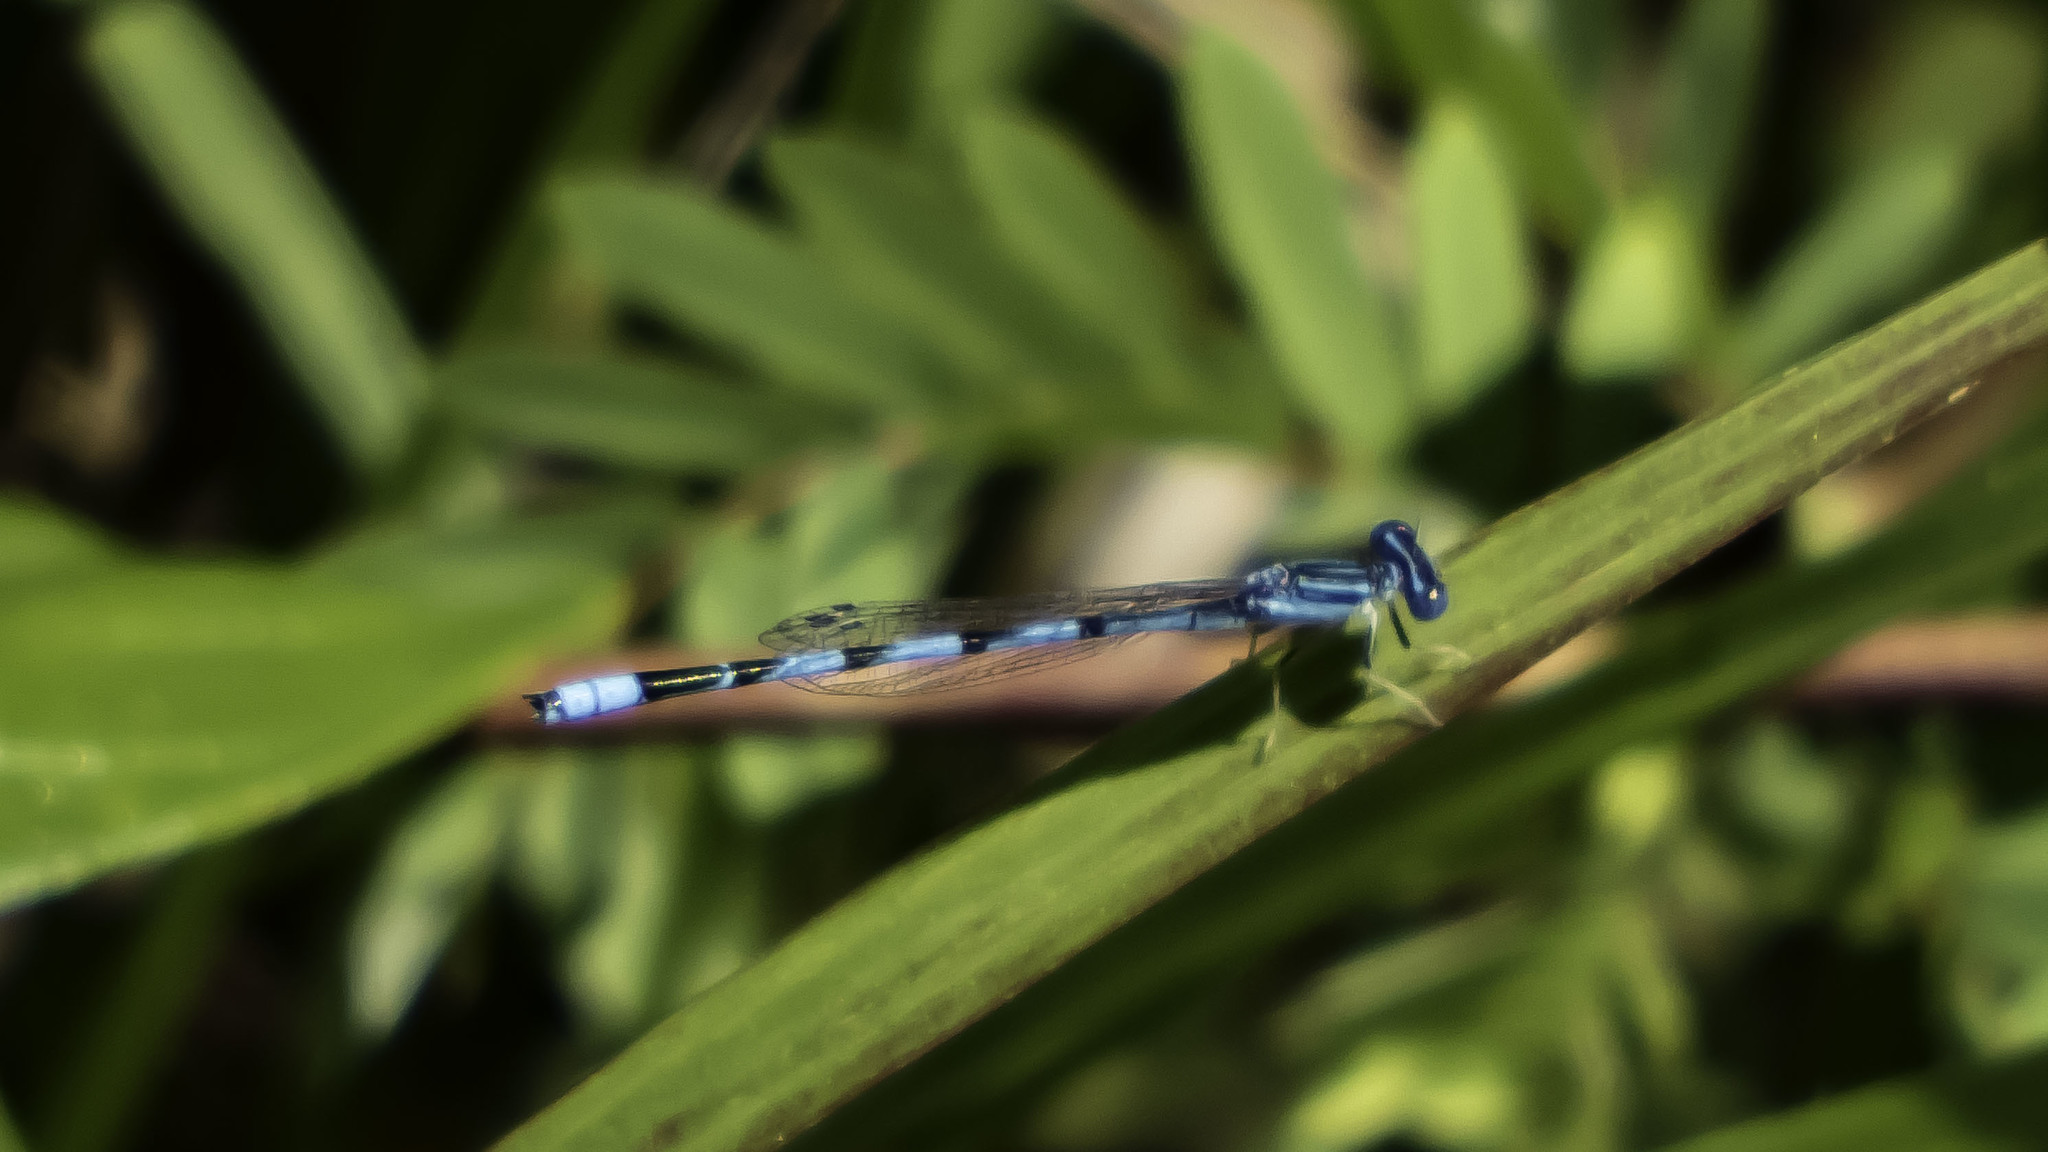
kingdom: Animalia
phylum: Arthropoda
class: Insecta
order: Odonata
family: Coenagrionidae
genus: Enallagma
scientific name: Enallagma basidens
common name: Double-striped bluet
